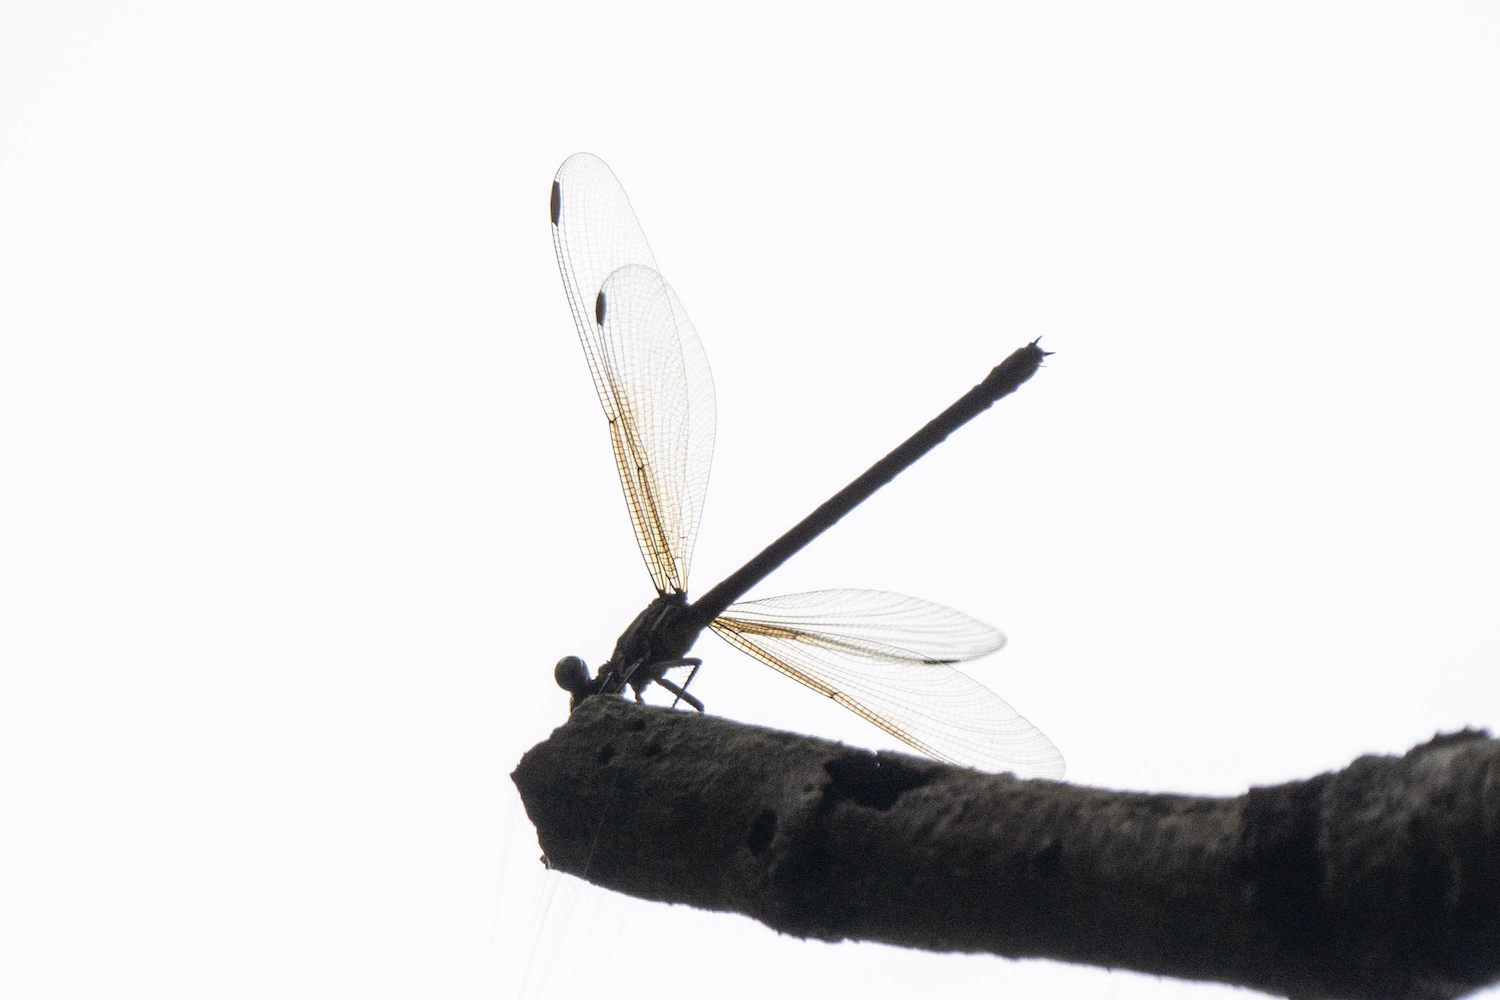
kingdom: Animalia
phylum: Arthropoda
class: Insecta
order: Odonata
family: Euphaeidae
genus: Euphaea
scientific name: Euphaea decorata
